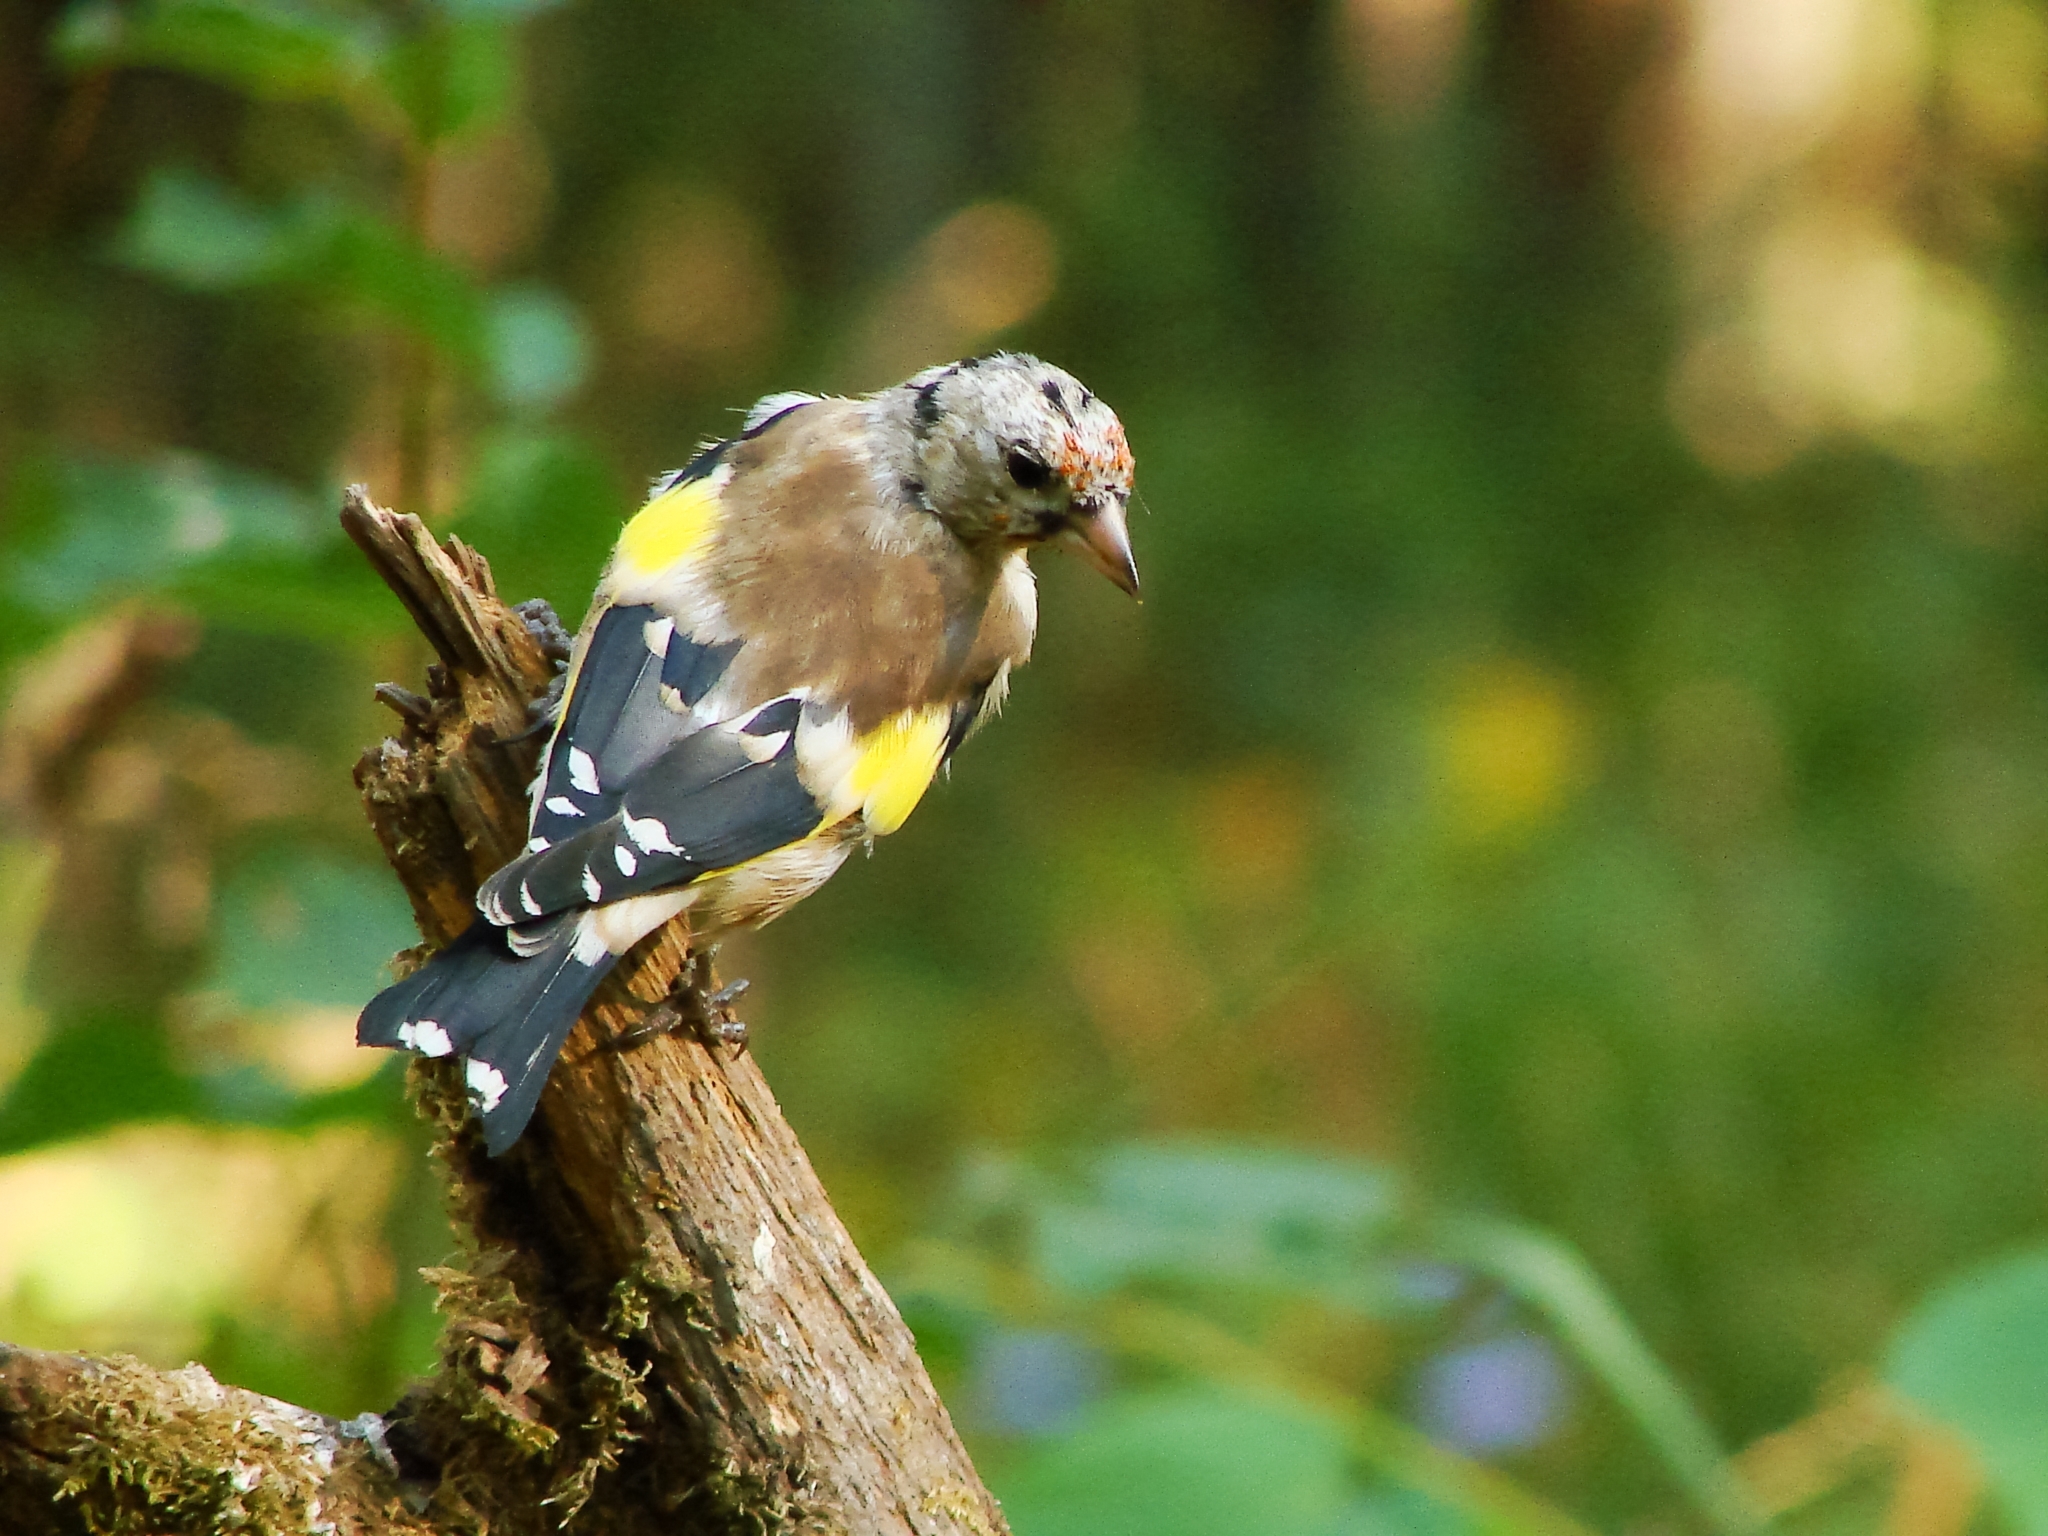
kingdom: Animalia
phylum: Chordata
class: Aves
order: Passeriformes
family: Fringillidae
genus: Carduelis
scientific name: Carduelis carduelis
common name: European goldfinch
